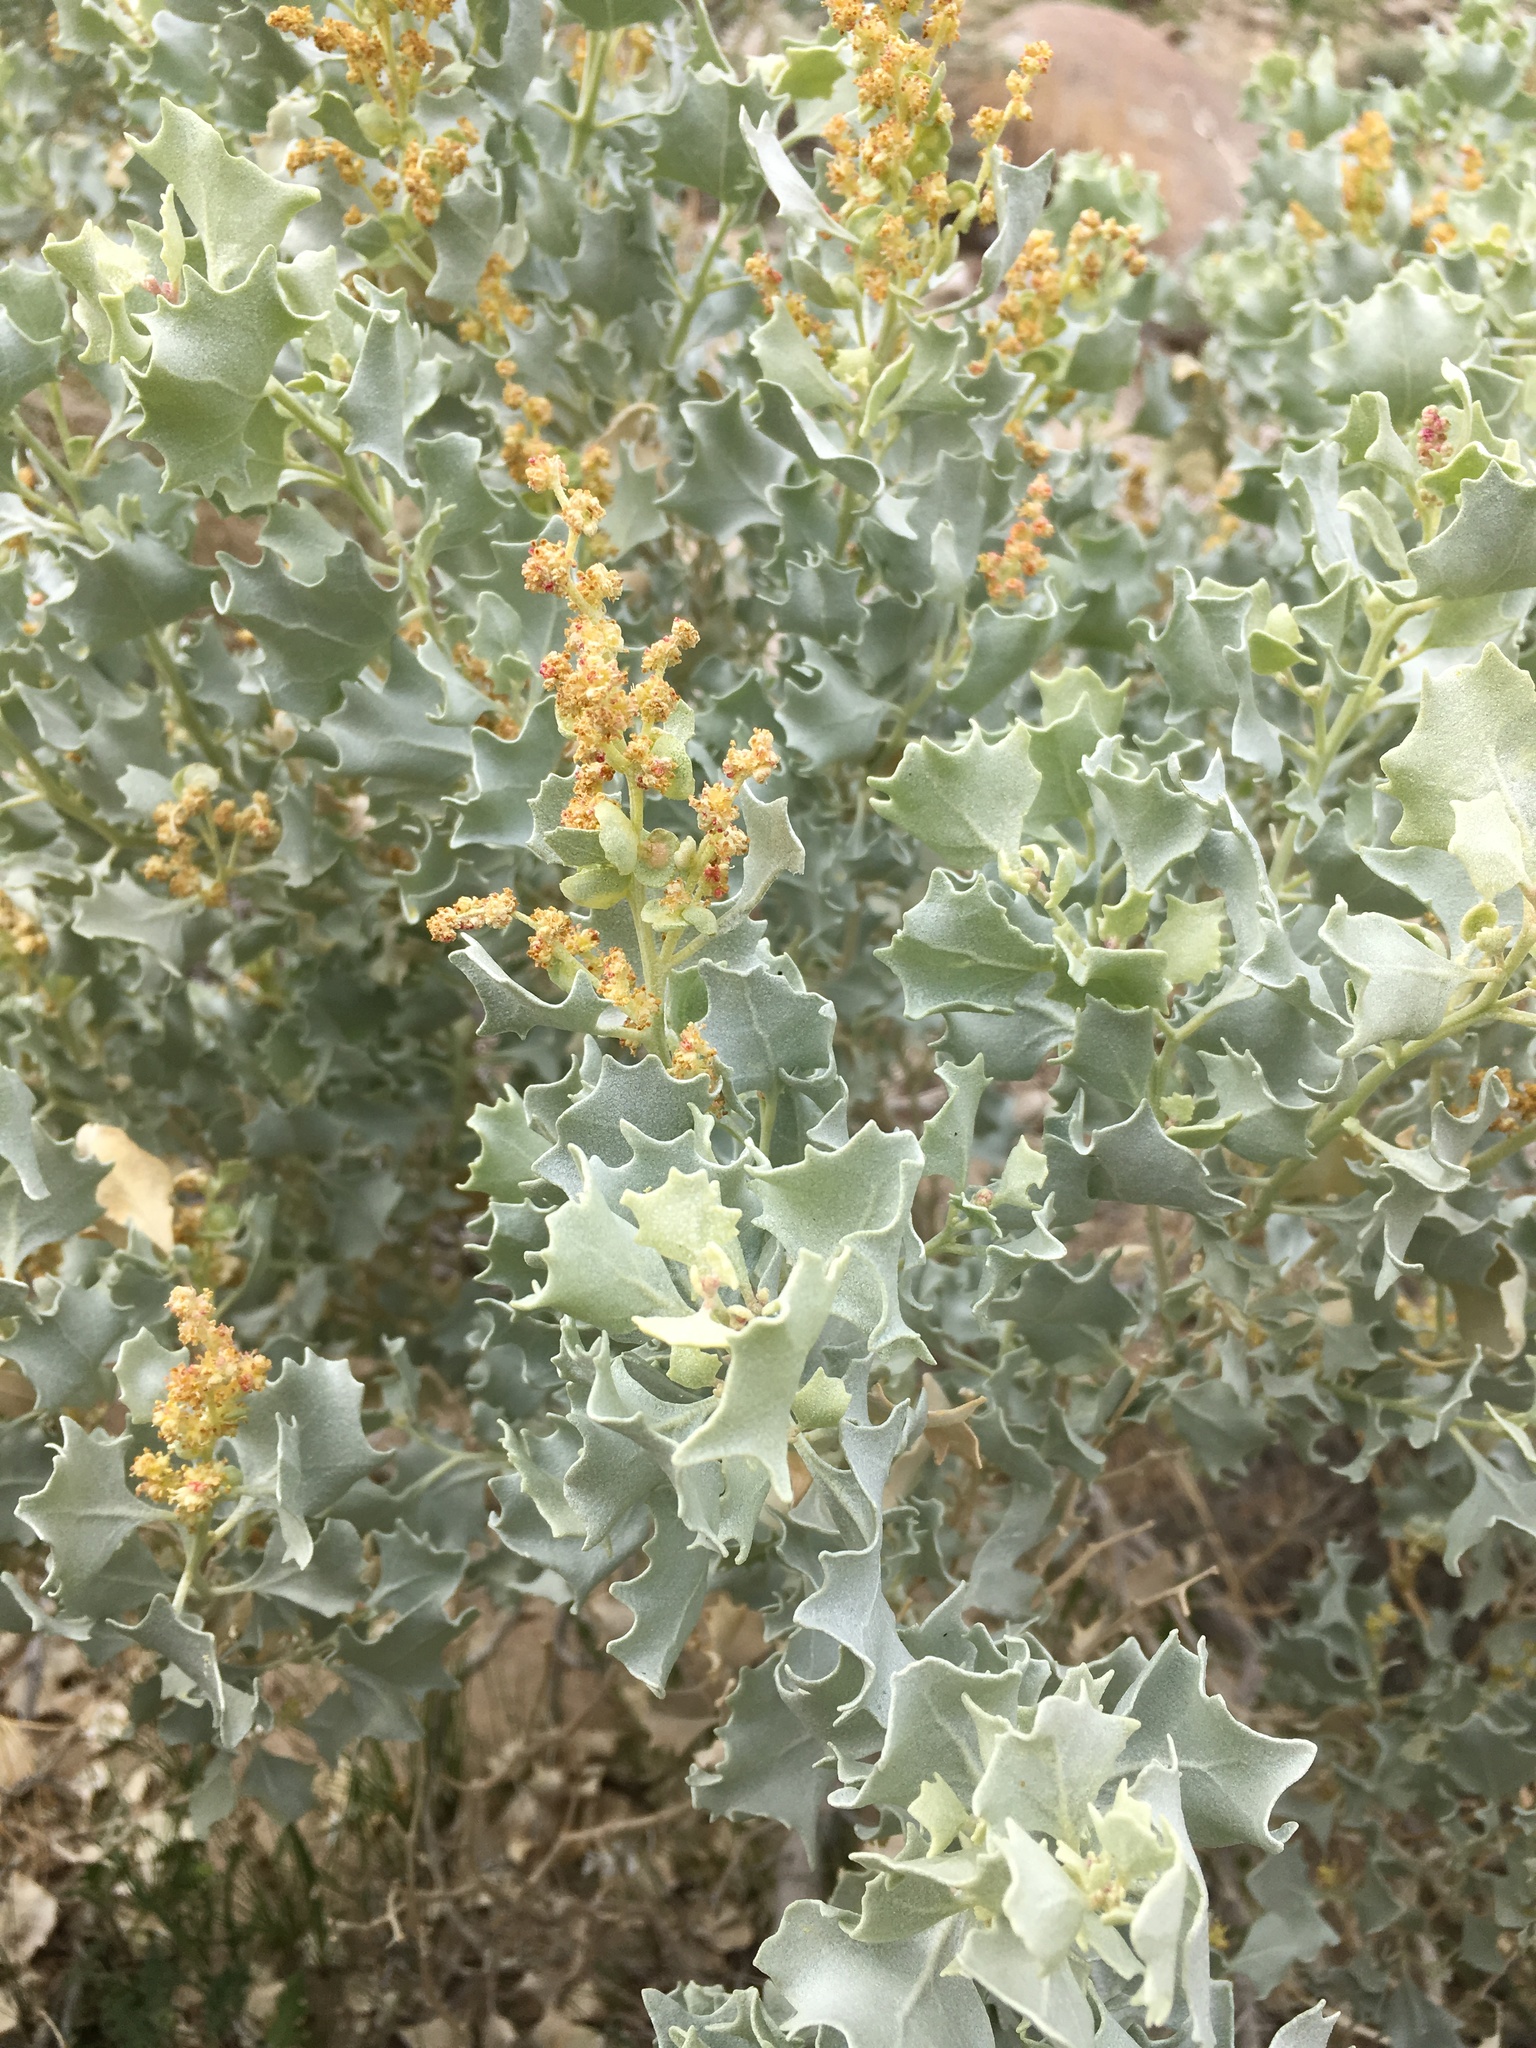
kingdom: Plantae
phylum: Tracheophyta
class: Magnoliopsida
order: Caryophyllales
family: Amaranthaceae
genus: Atriplex
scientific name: Atriplex hymenelytra
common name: Desert-holly
